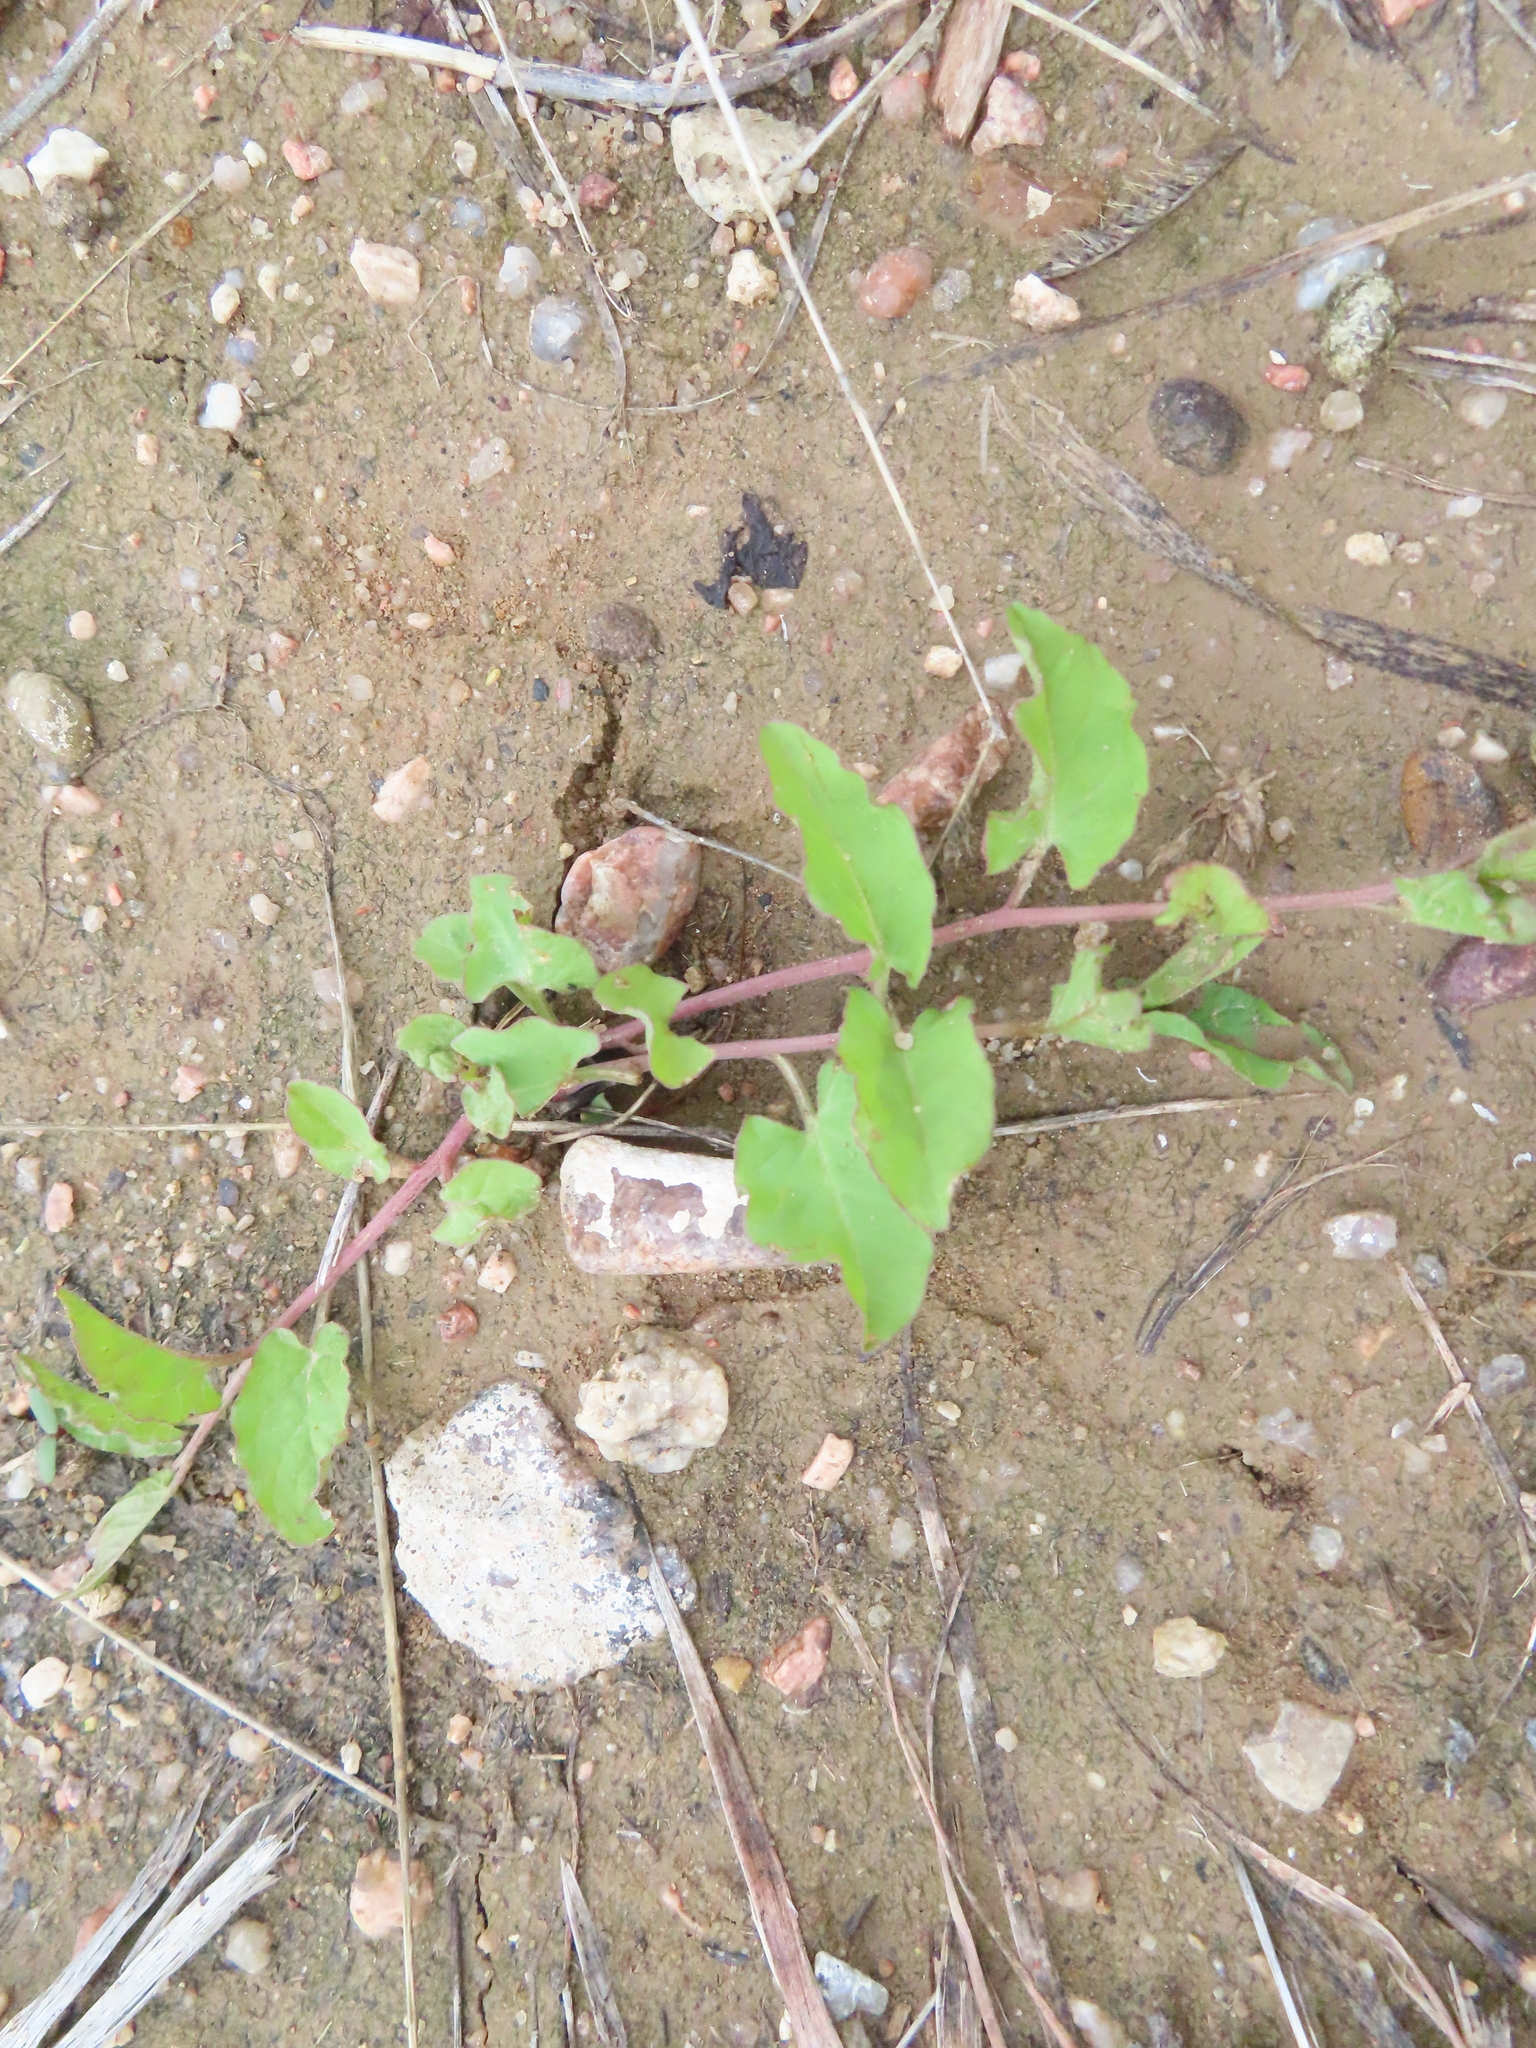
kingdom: Plantae
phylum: Tracheophyta
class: Magnoliopsida
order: Solanales
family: Convolvulaceae
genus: Convolvulus
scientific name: Convolvulus arvensis
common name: Field bindweed
